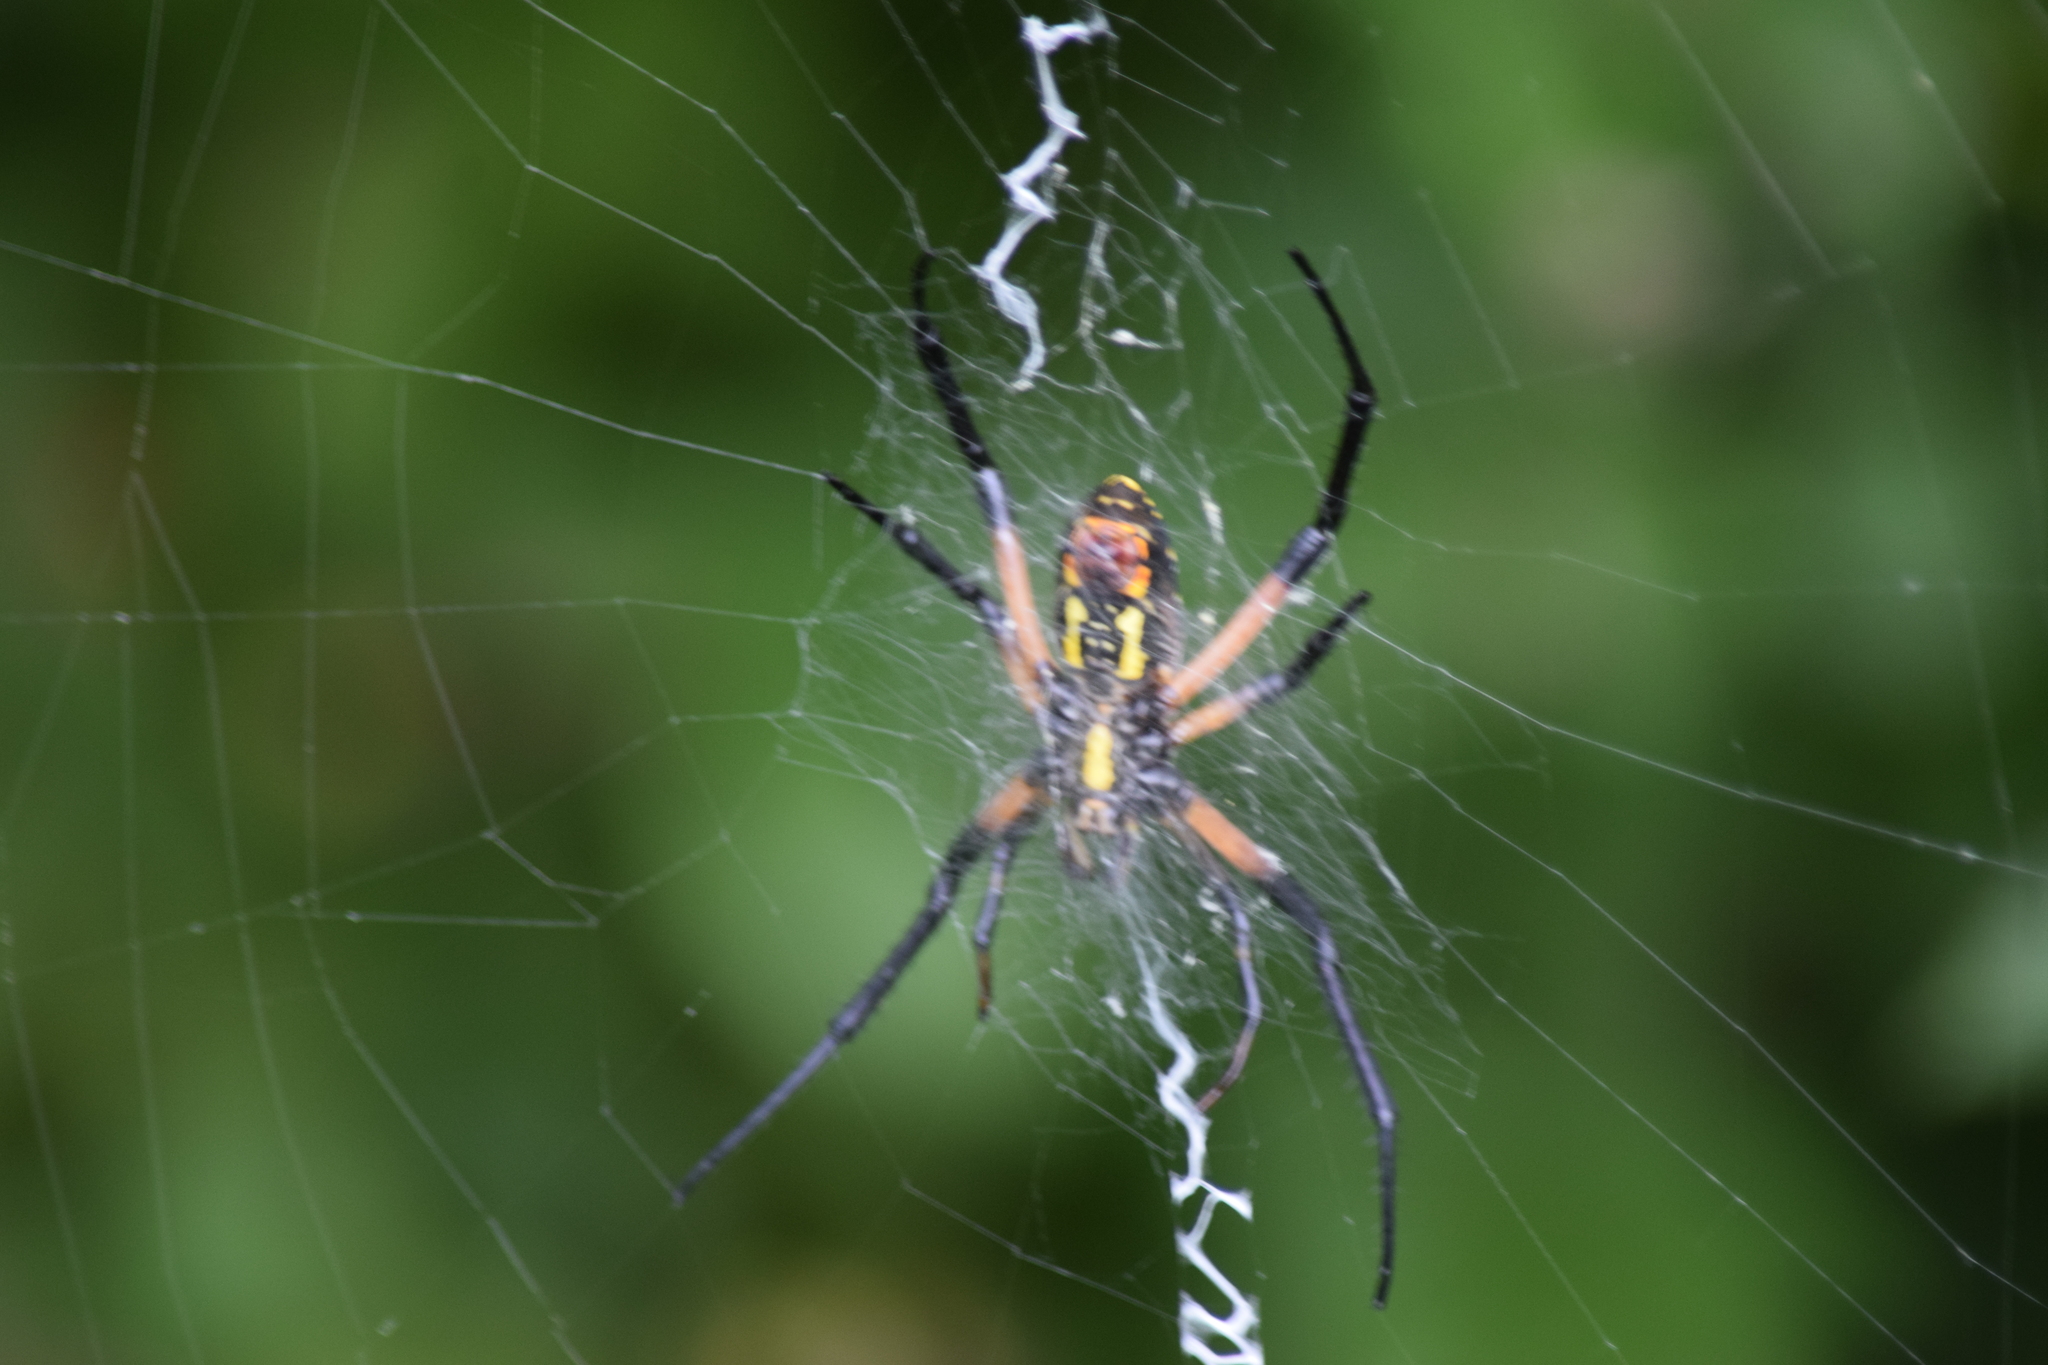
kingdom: Animalia
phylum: Arthropoda
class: Arachnida
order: Araneae
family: Araneidae
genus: Argiope
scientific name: Argiope aurantia
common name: Orb weavers
